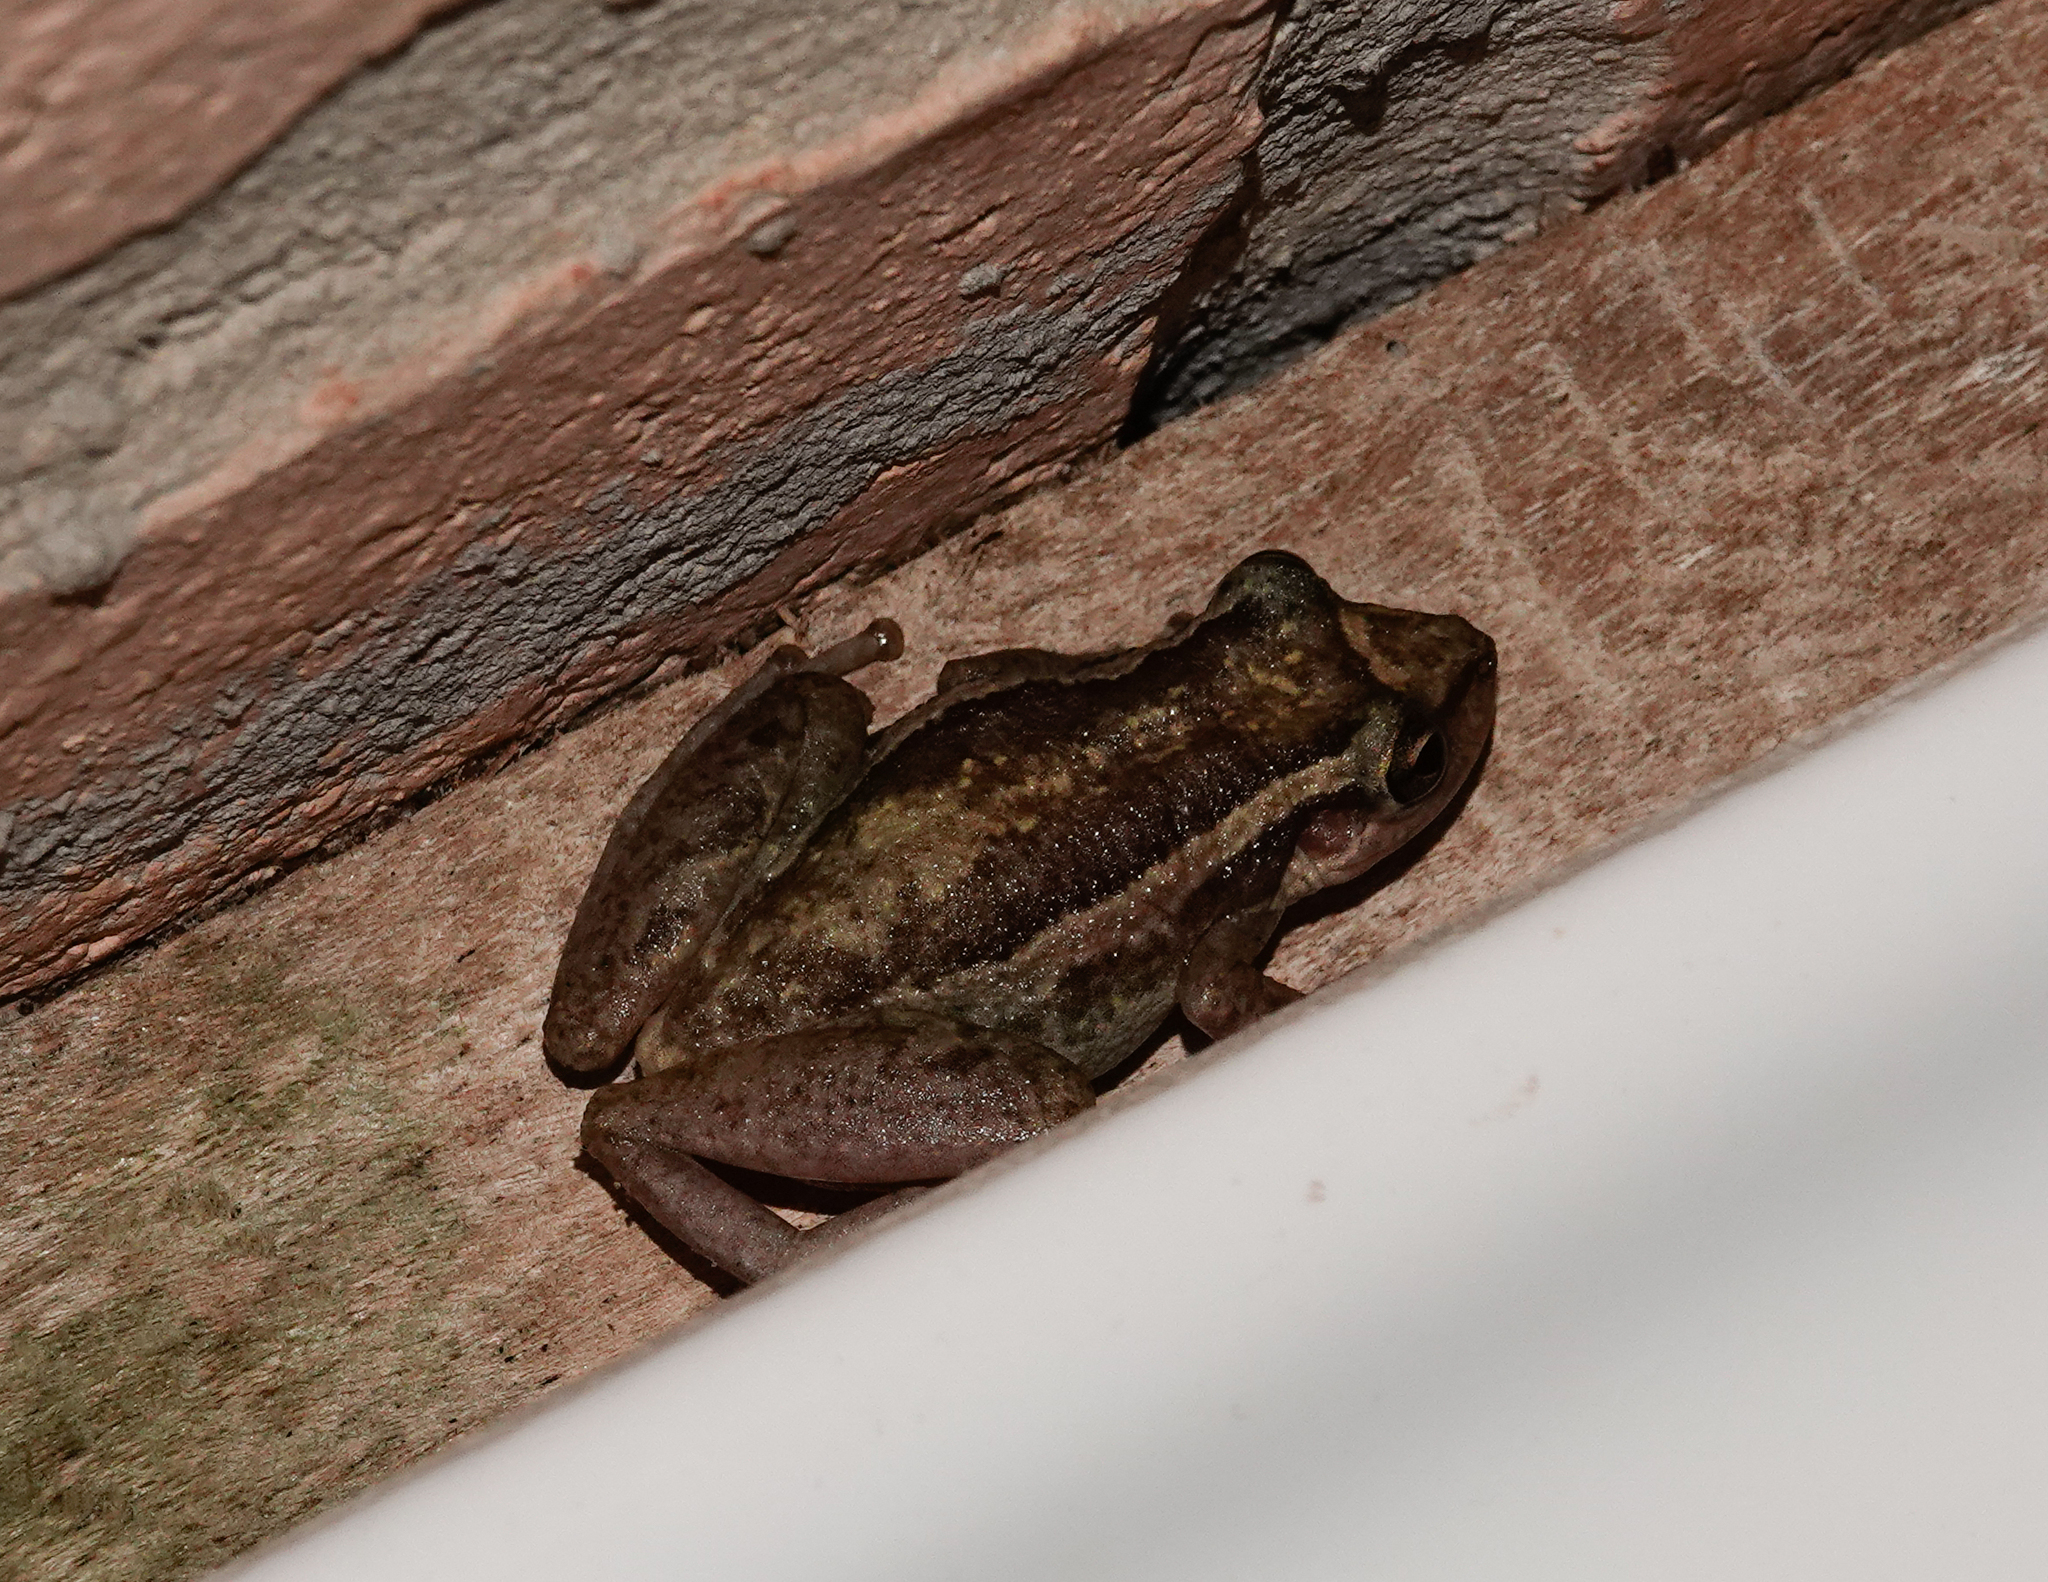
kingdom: Animalia
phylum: Chordata
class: Amphibia
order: Anura
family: Hylidae
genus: Scinax
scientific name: Scinax ruber
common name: Red snouted treefrog
